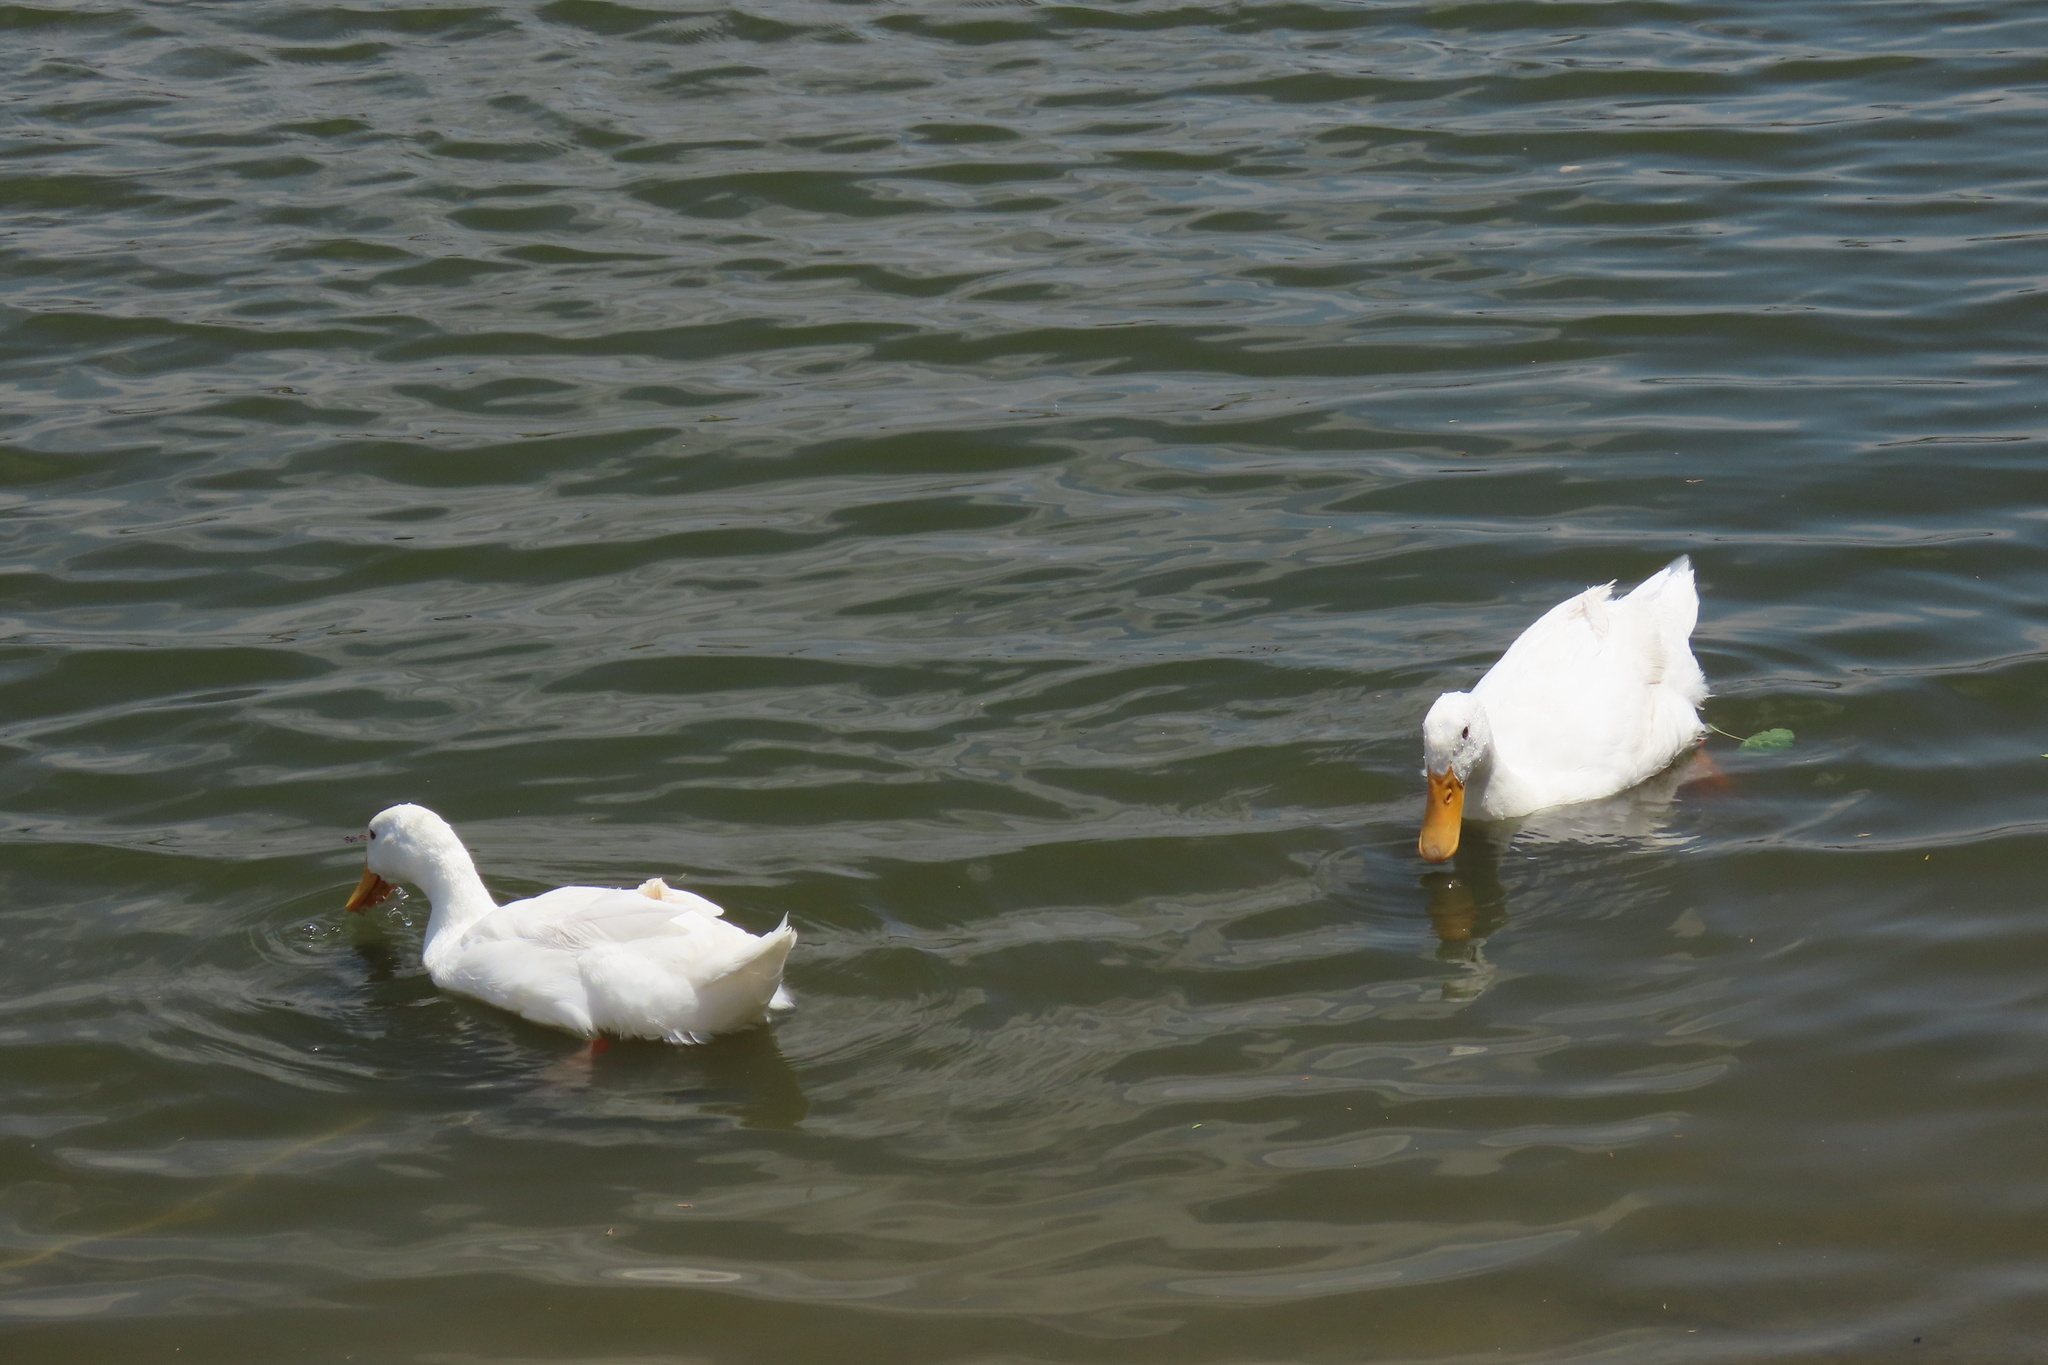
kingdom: Animalia
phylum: Chordata
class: Aves
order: Anseriformes
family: Anatidae
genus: Anas
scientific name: Anas platyrhynchos
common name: Mallard
